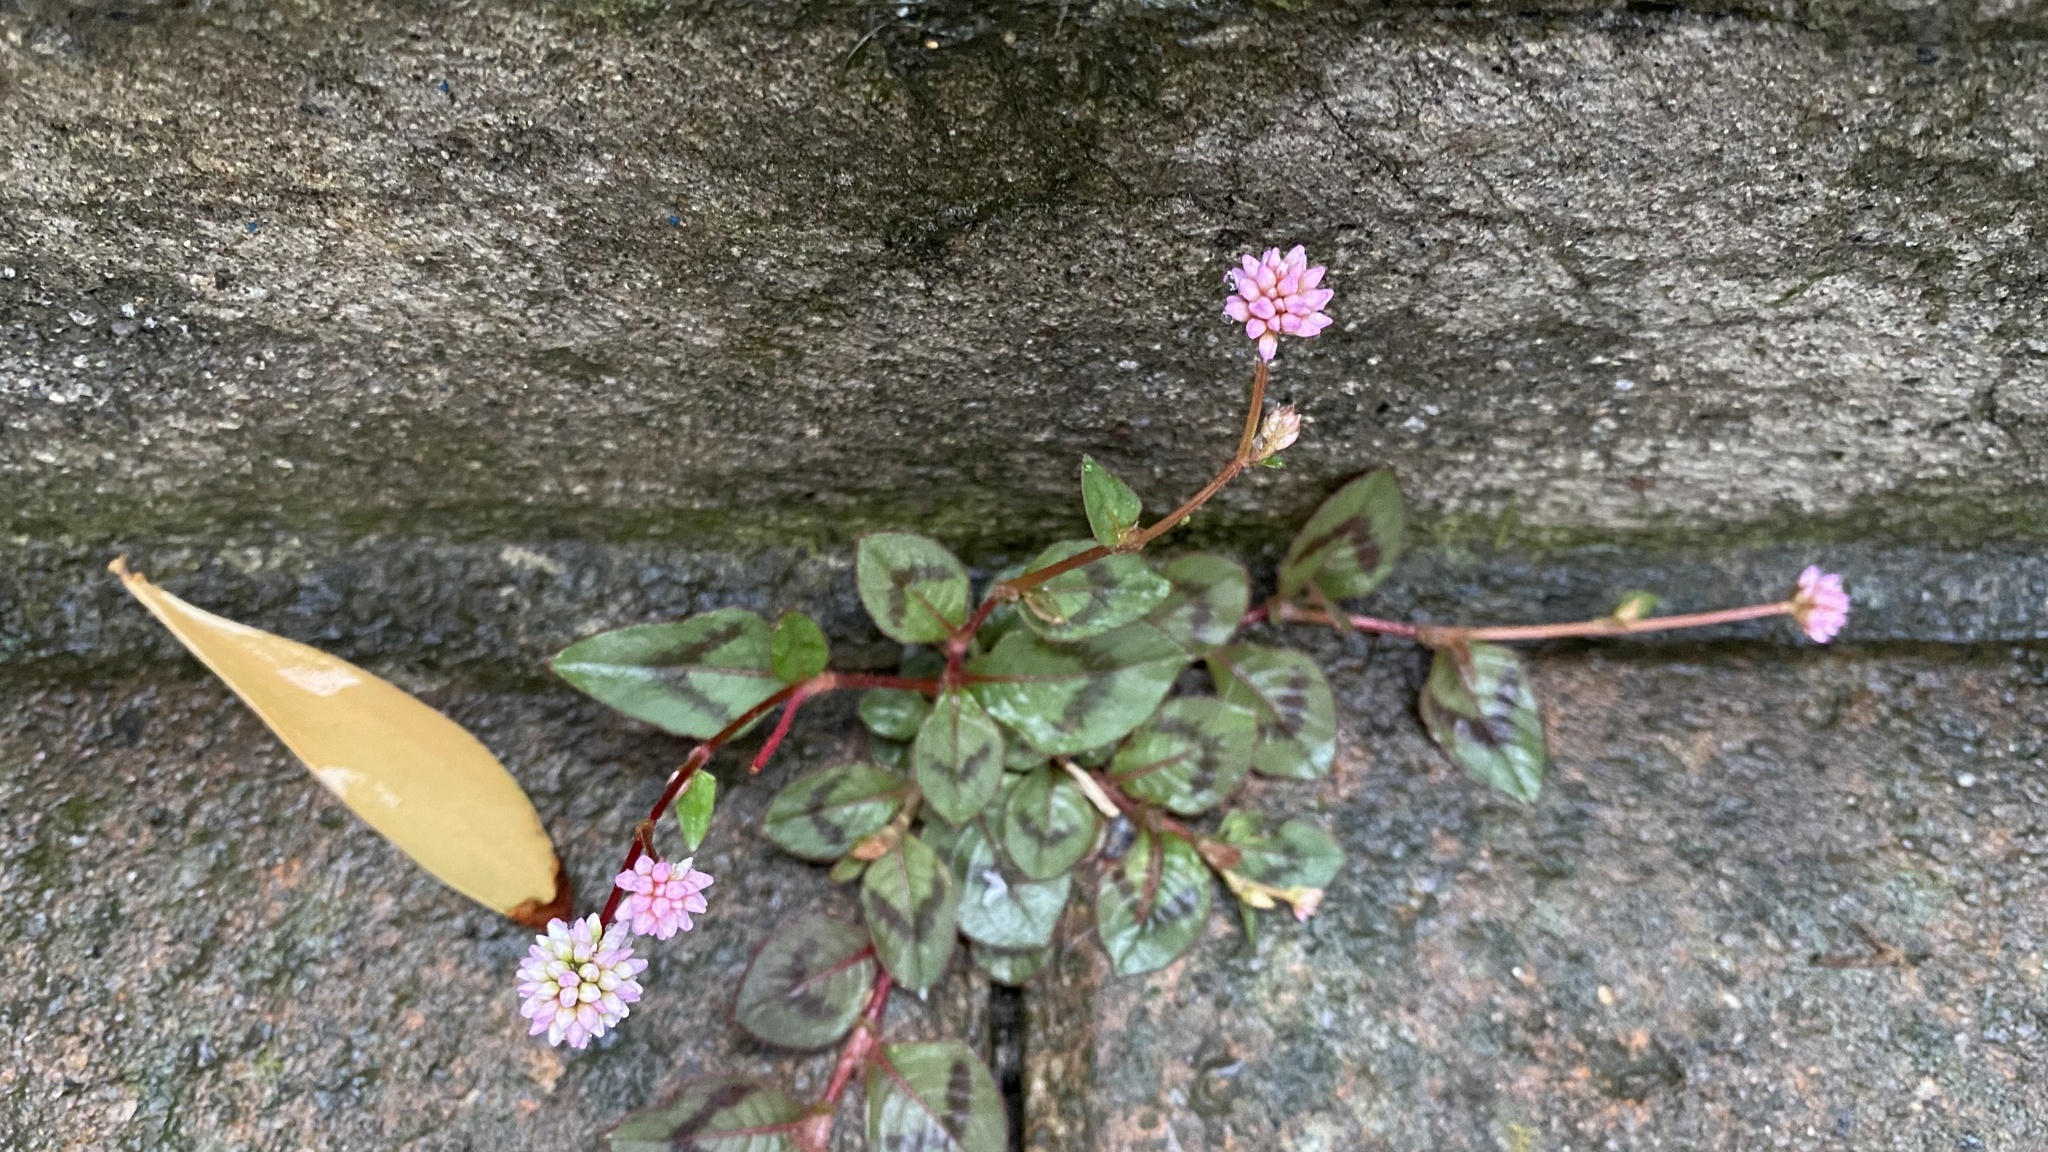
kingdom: Plantae
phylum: Tracheophyta
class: Magnoliopsida
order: Caryophyllales
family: Polygonaceae
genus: Persicaria
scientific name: Persicaria capitata
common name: Pinkhead smartweed
